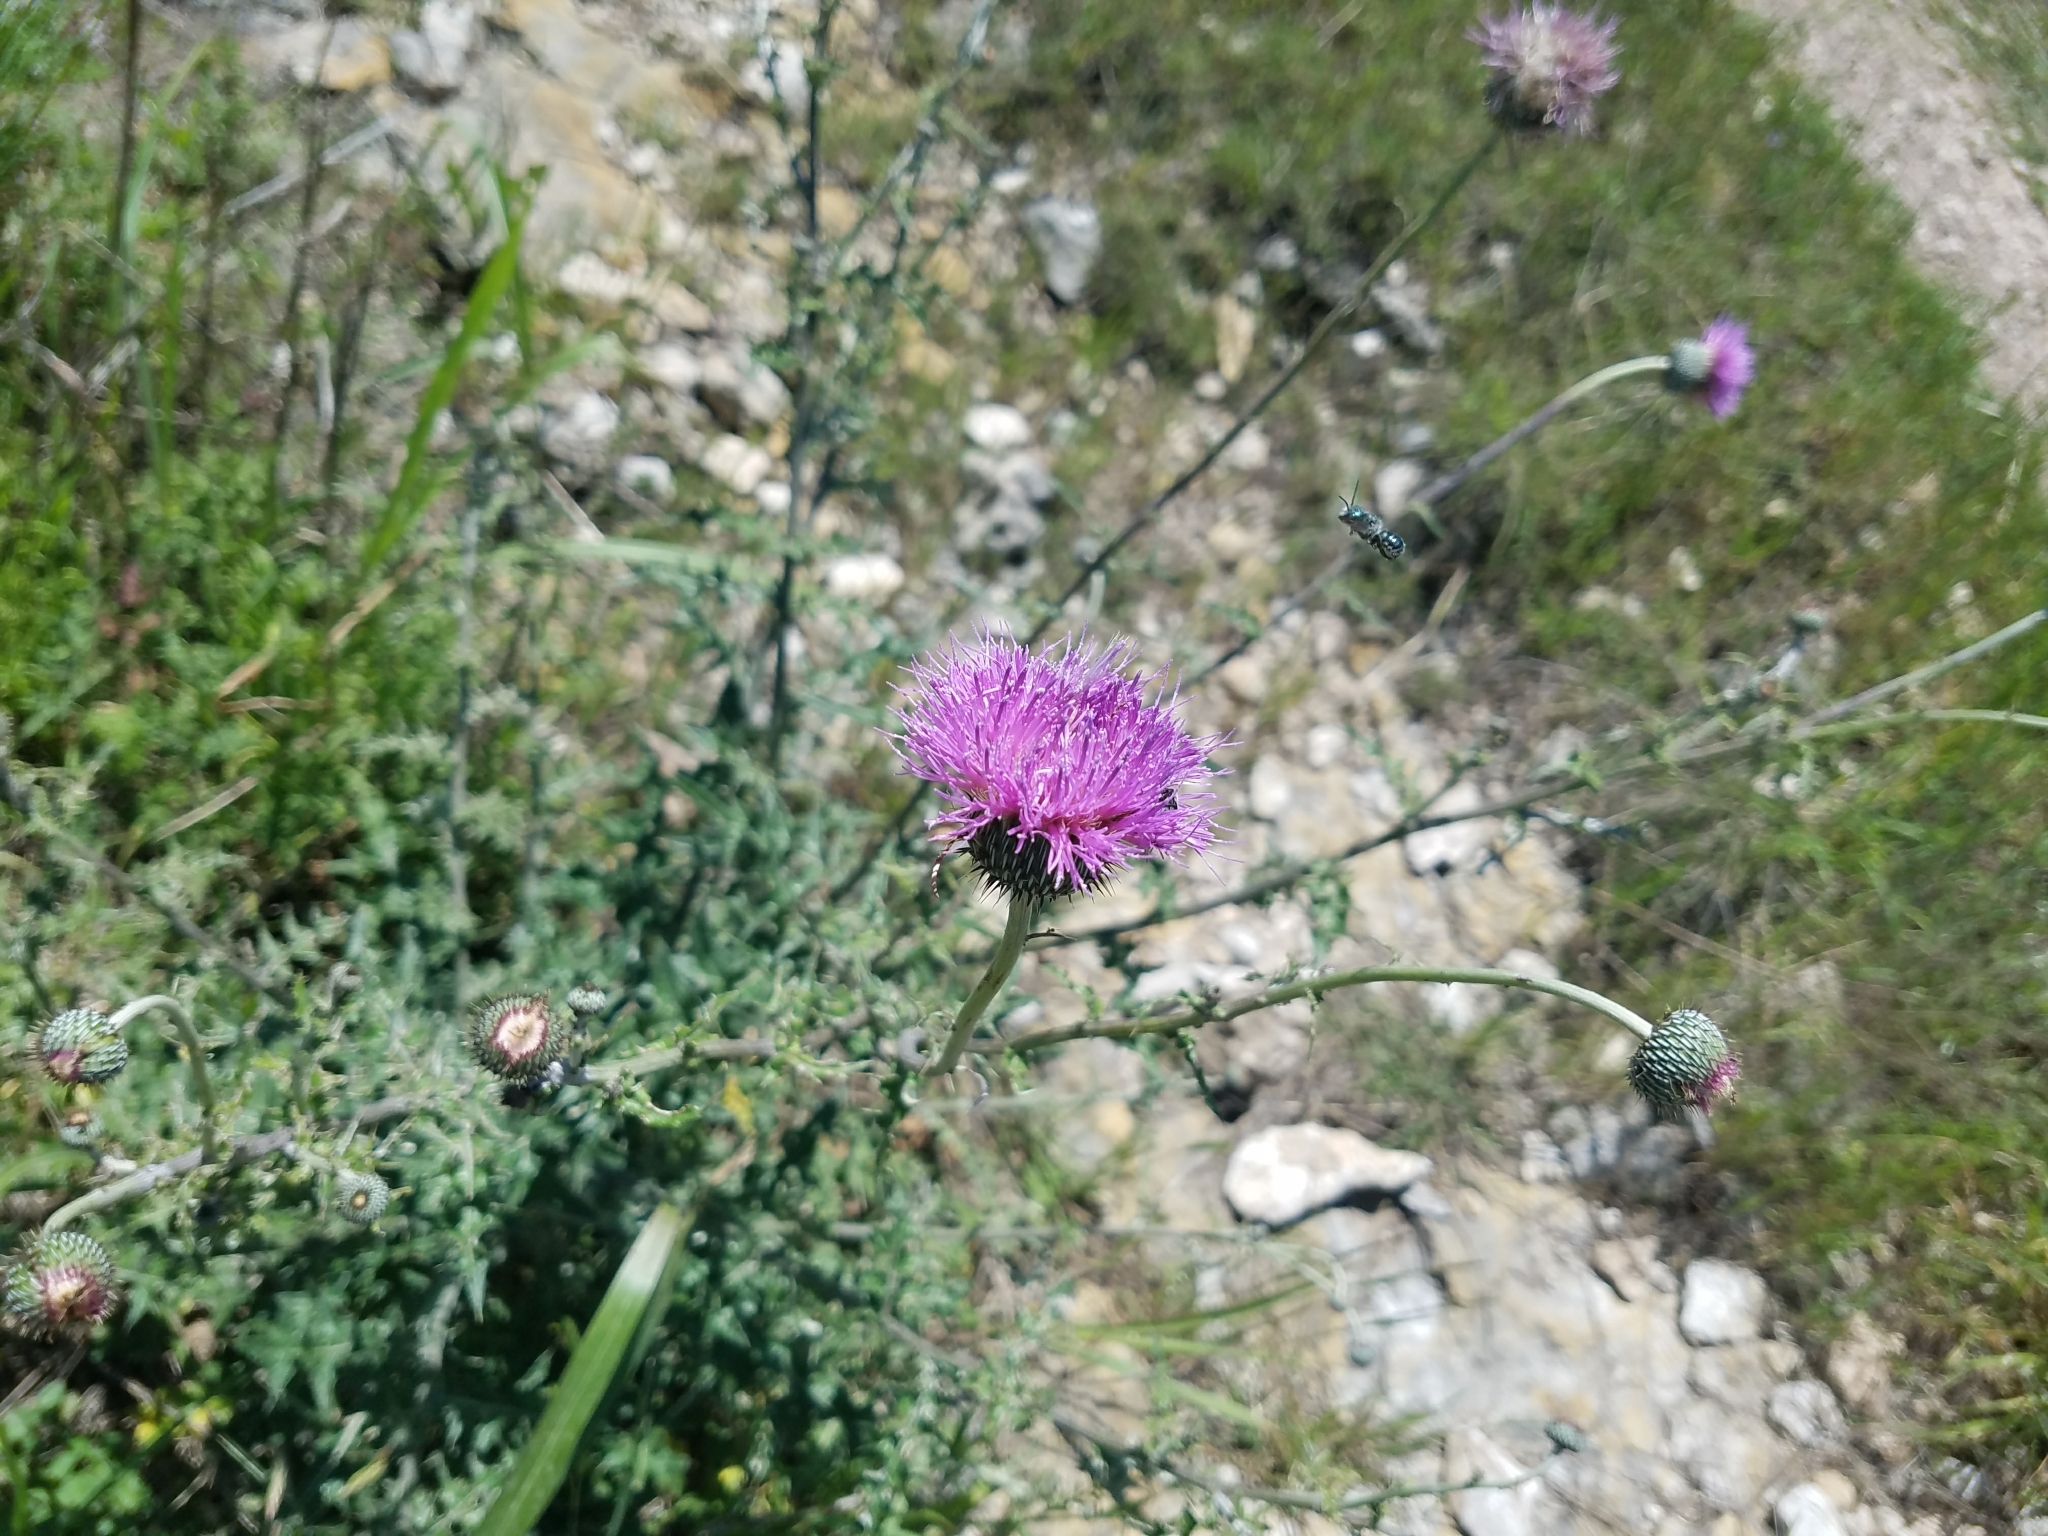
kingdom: Plantae
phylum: Tracheophyta
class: Magnoliopsida
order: Asterales
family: Asteraceae
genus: Cirsium
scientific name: Cirsium texanum
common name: Texas purple thistle
